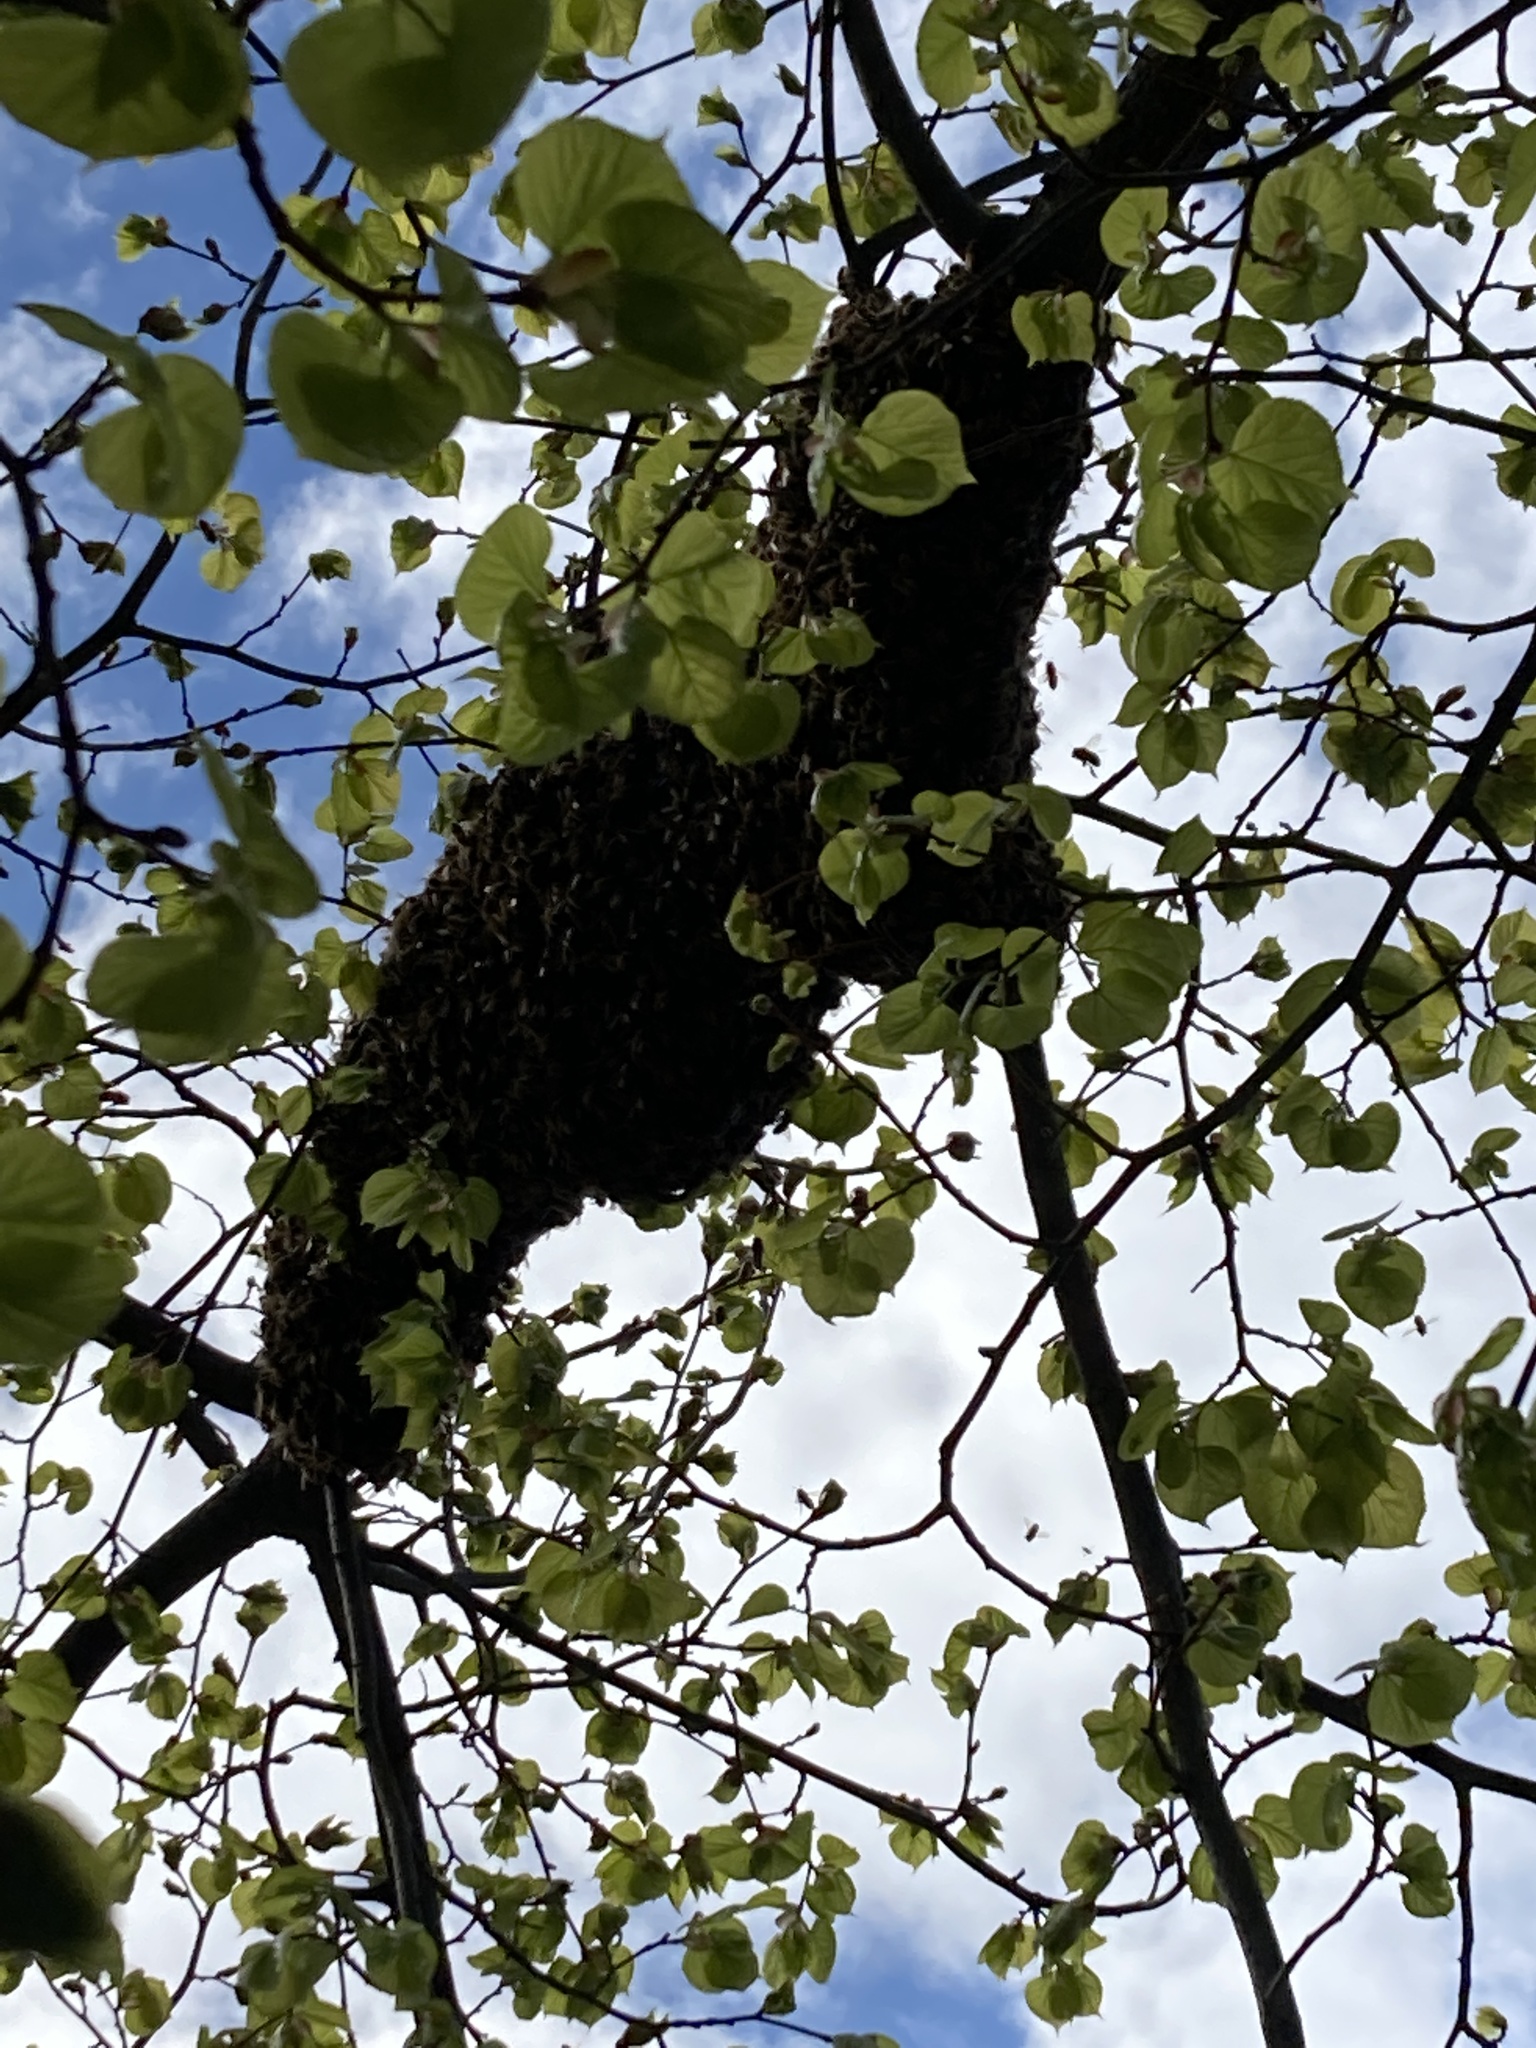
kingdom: Animalia
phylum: Arthropoda
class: Insecta
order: Hymenoptera
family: Apidae
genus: Apis
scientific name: Apis mellifera
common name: Honey bee
